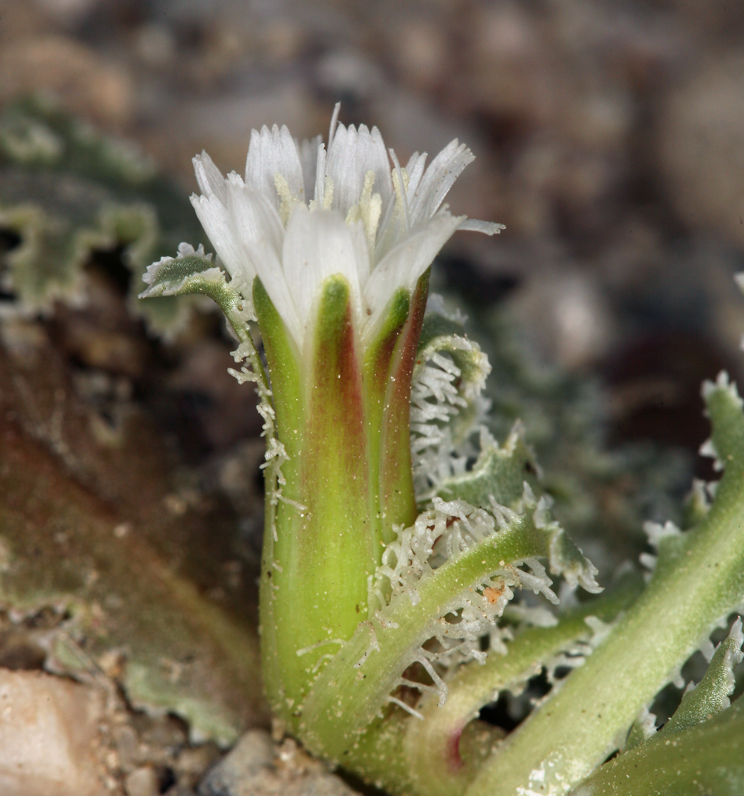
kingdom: Plantae
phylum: Tracheophyta
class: Magnoliopsida
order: Asterales
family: Asteraceae
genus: Glyptopleura
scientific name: Glyptopleura marginata
